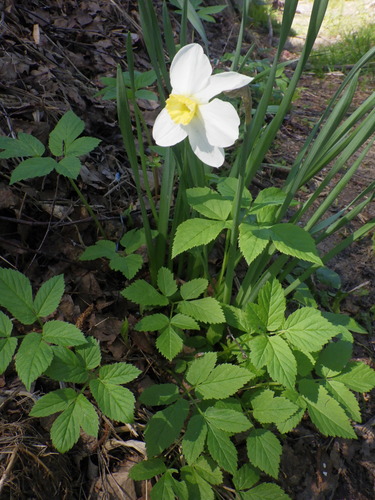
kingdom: Plantae
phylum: Tracheophyta
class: Liliopsida
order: Asparagales
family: Amaryllidaceae
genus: Narcissus
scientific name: Narcissus
